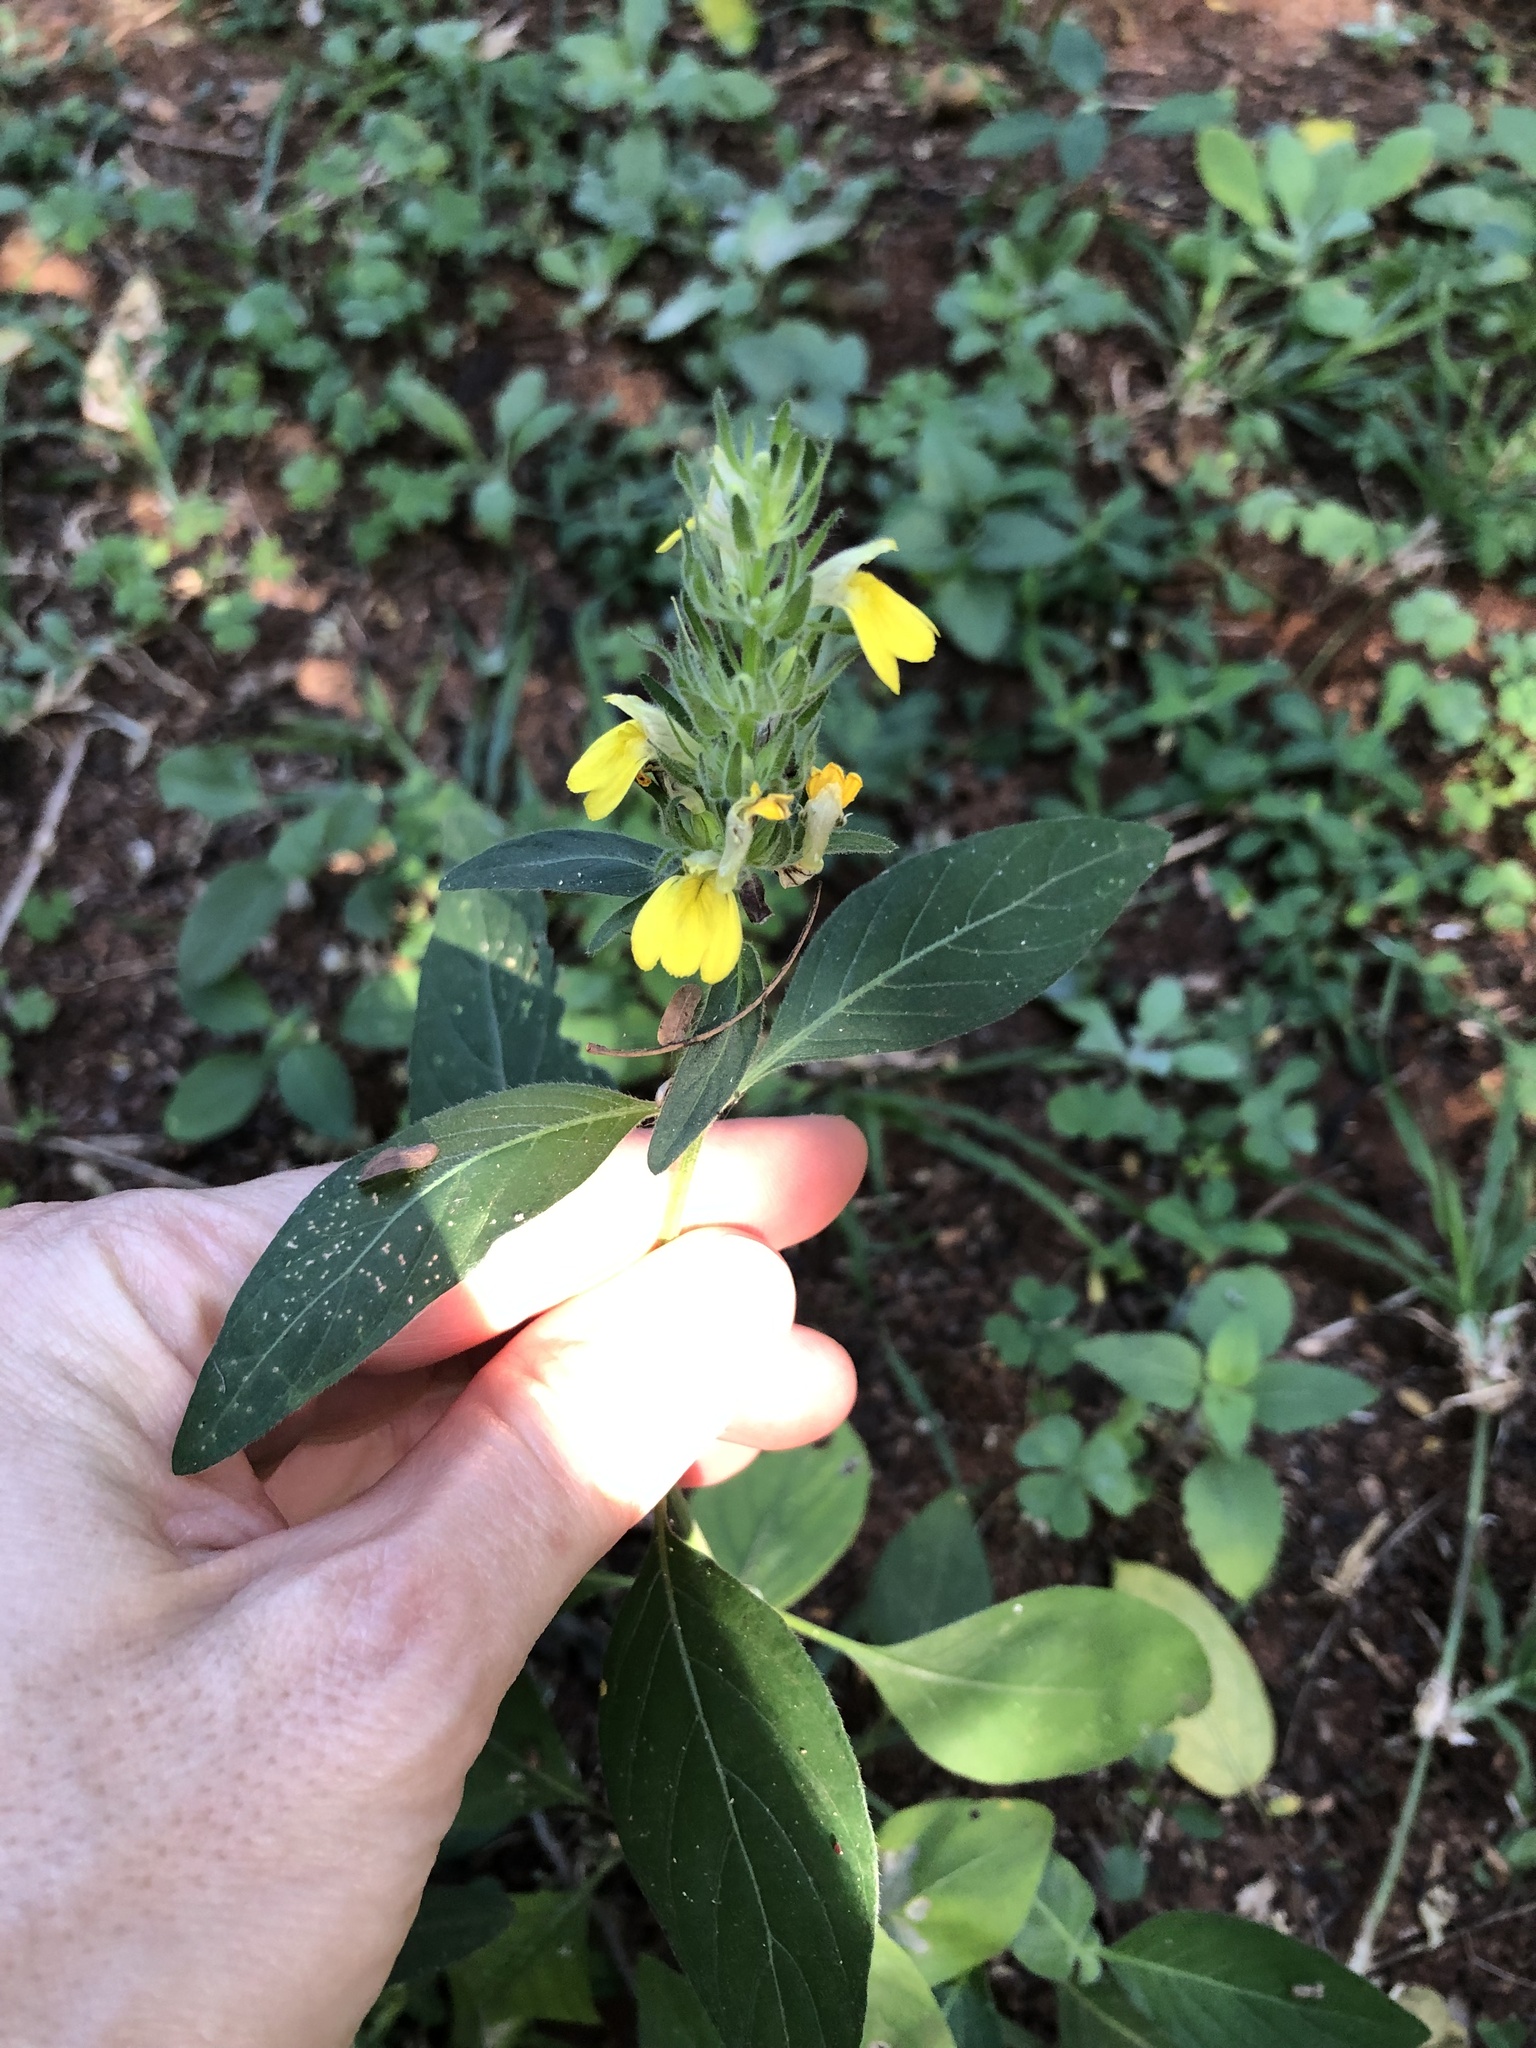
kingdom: Plantae
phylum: Tracheophyta
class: Magnoliopsida
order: Lamiales
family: Acanthaceae
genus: Justicia
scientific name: Justicia flava
